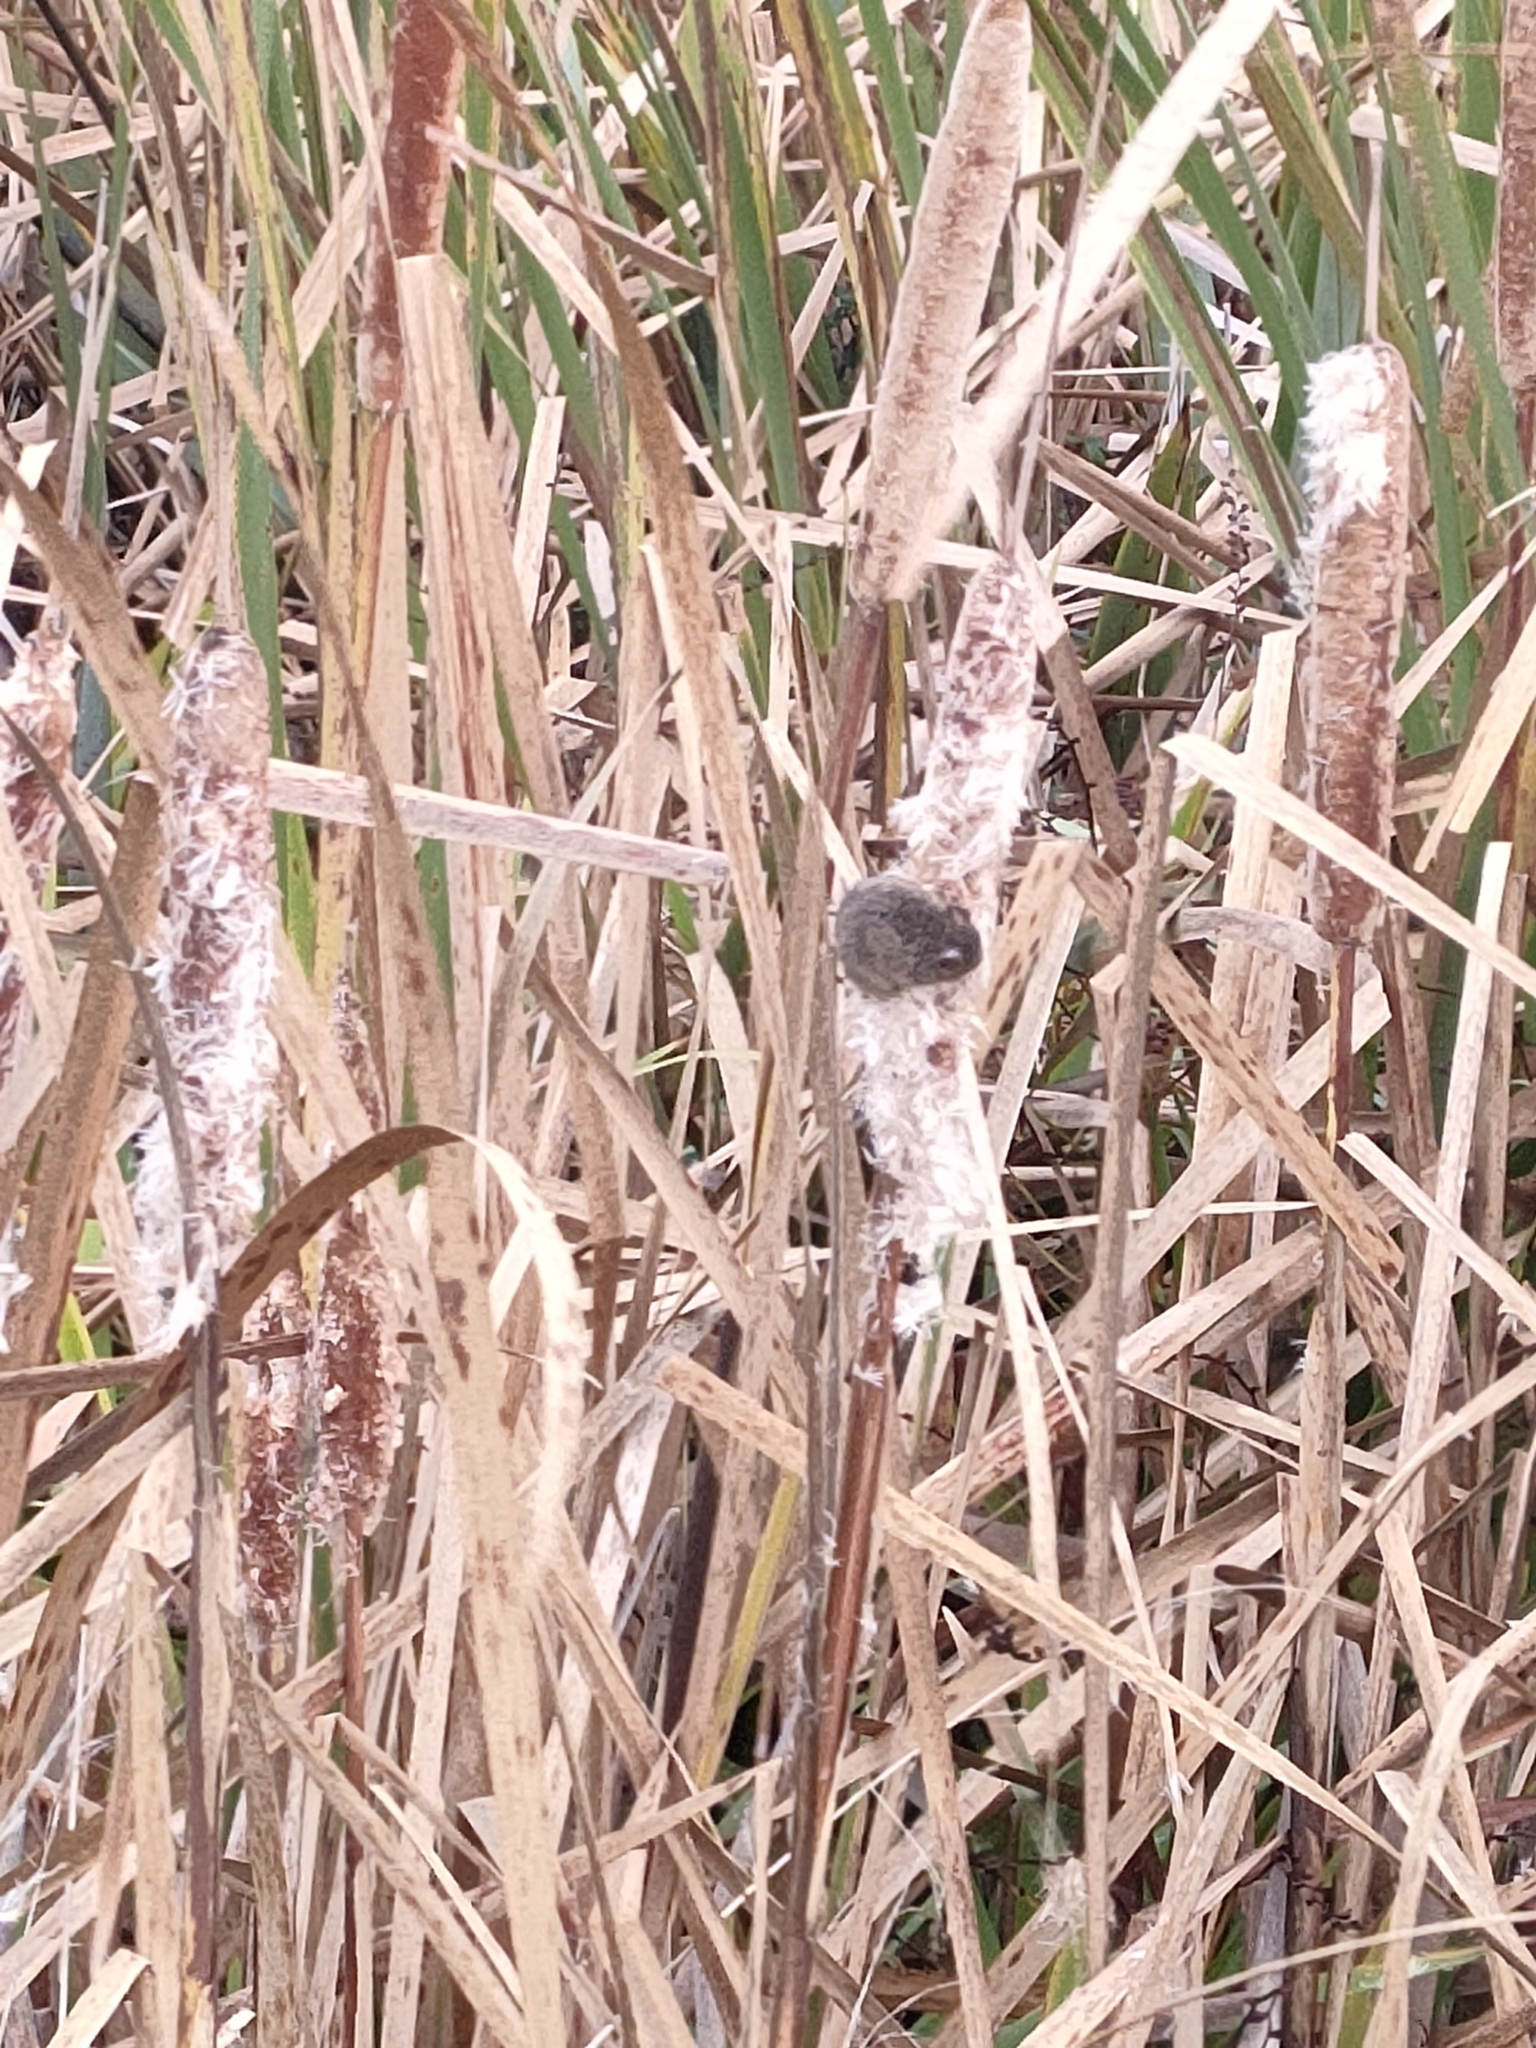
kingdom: Animalia
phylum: Chordata
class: Mammalia
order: Rodentia
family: Muridae
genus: Mus
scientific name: Mus musculus
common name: House mouse
